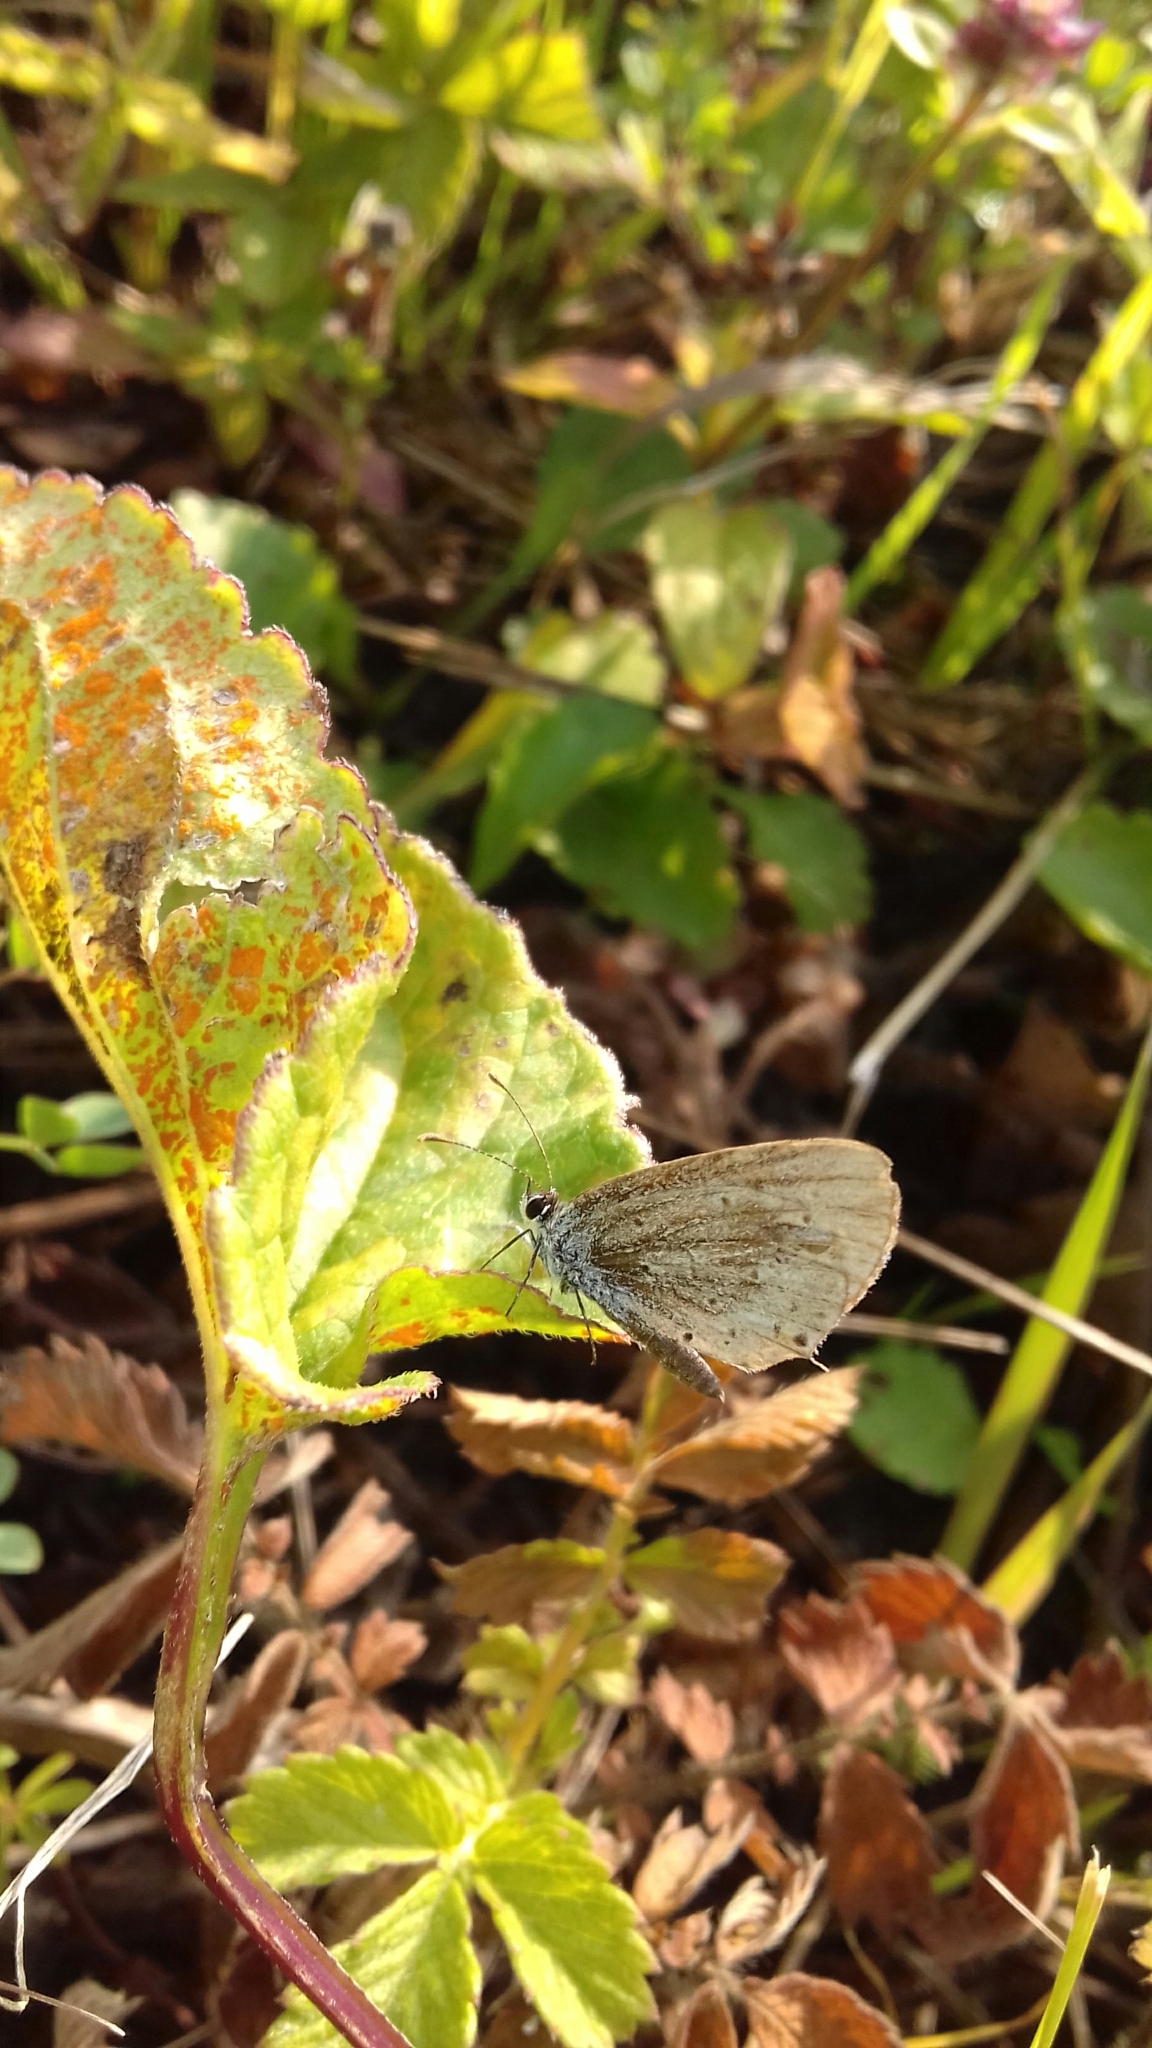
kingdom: Animalia
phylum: Arthropoda
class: Insecta
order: Lepidoptera
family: Lycaenidae
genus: Elkalyce
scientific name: Elkalyce argiades
